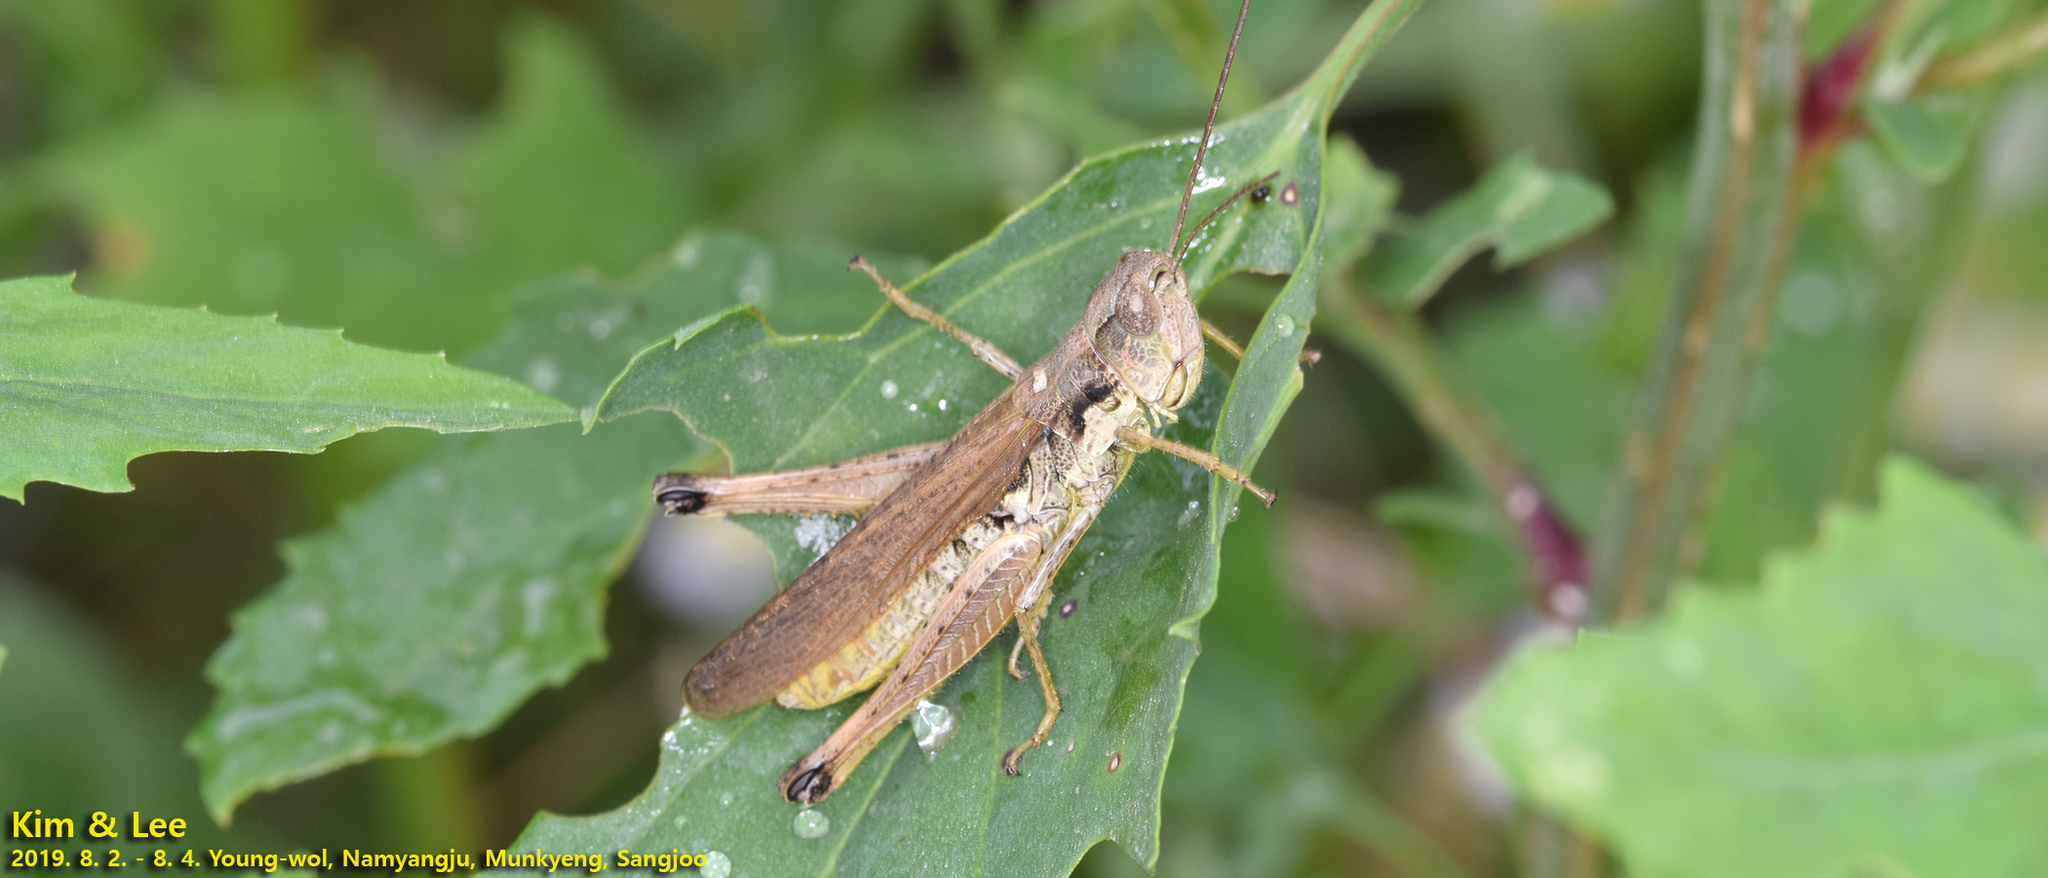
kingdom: Animalia
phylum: Arthropoda
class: Insecta
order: Orthoptera
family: Acrididae
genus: Schmidtiacris
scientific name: Schmidtiacris schmidti
